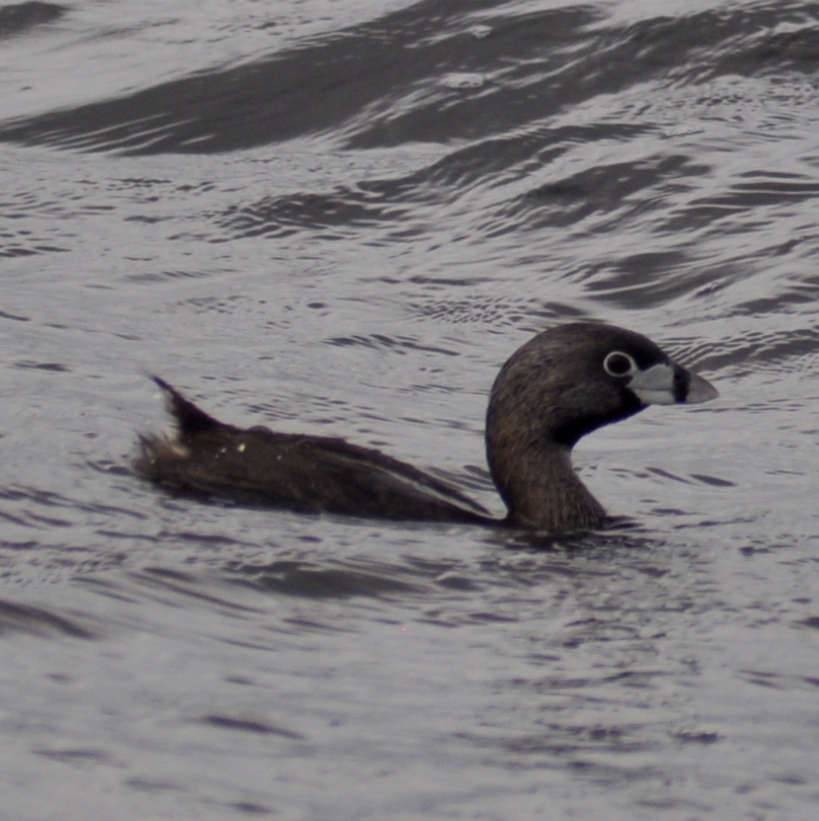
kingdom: Animalia
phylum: Chordata
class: Aves
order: Podicipediformes
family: Podicipedidae
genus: Podilymbus
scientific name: Podilymbus podiceps
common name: Pied-billed grebe
